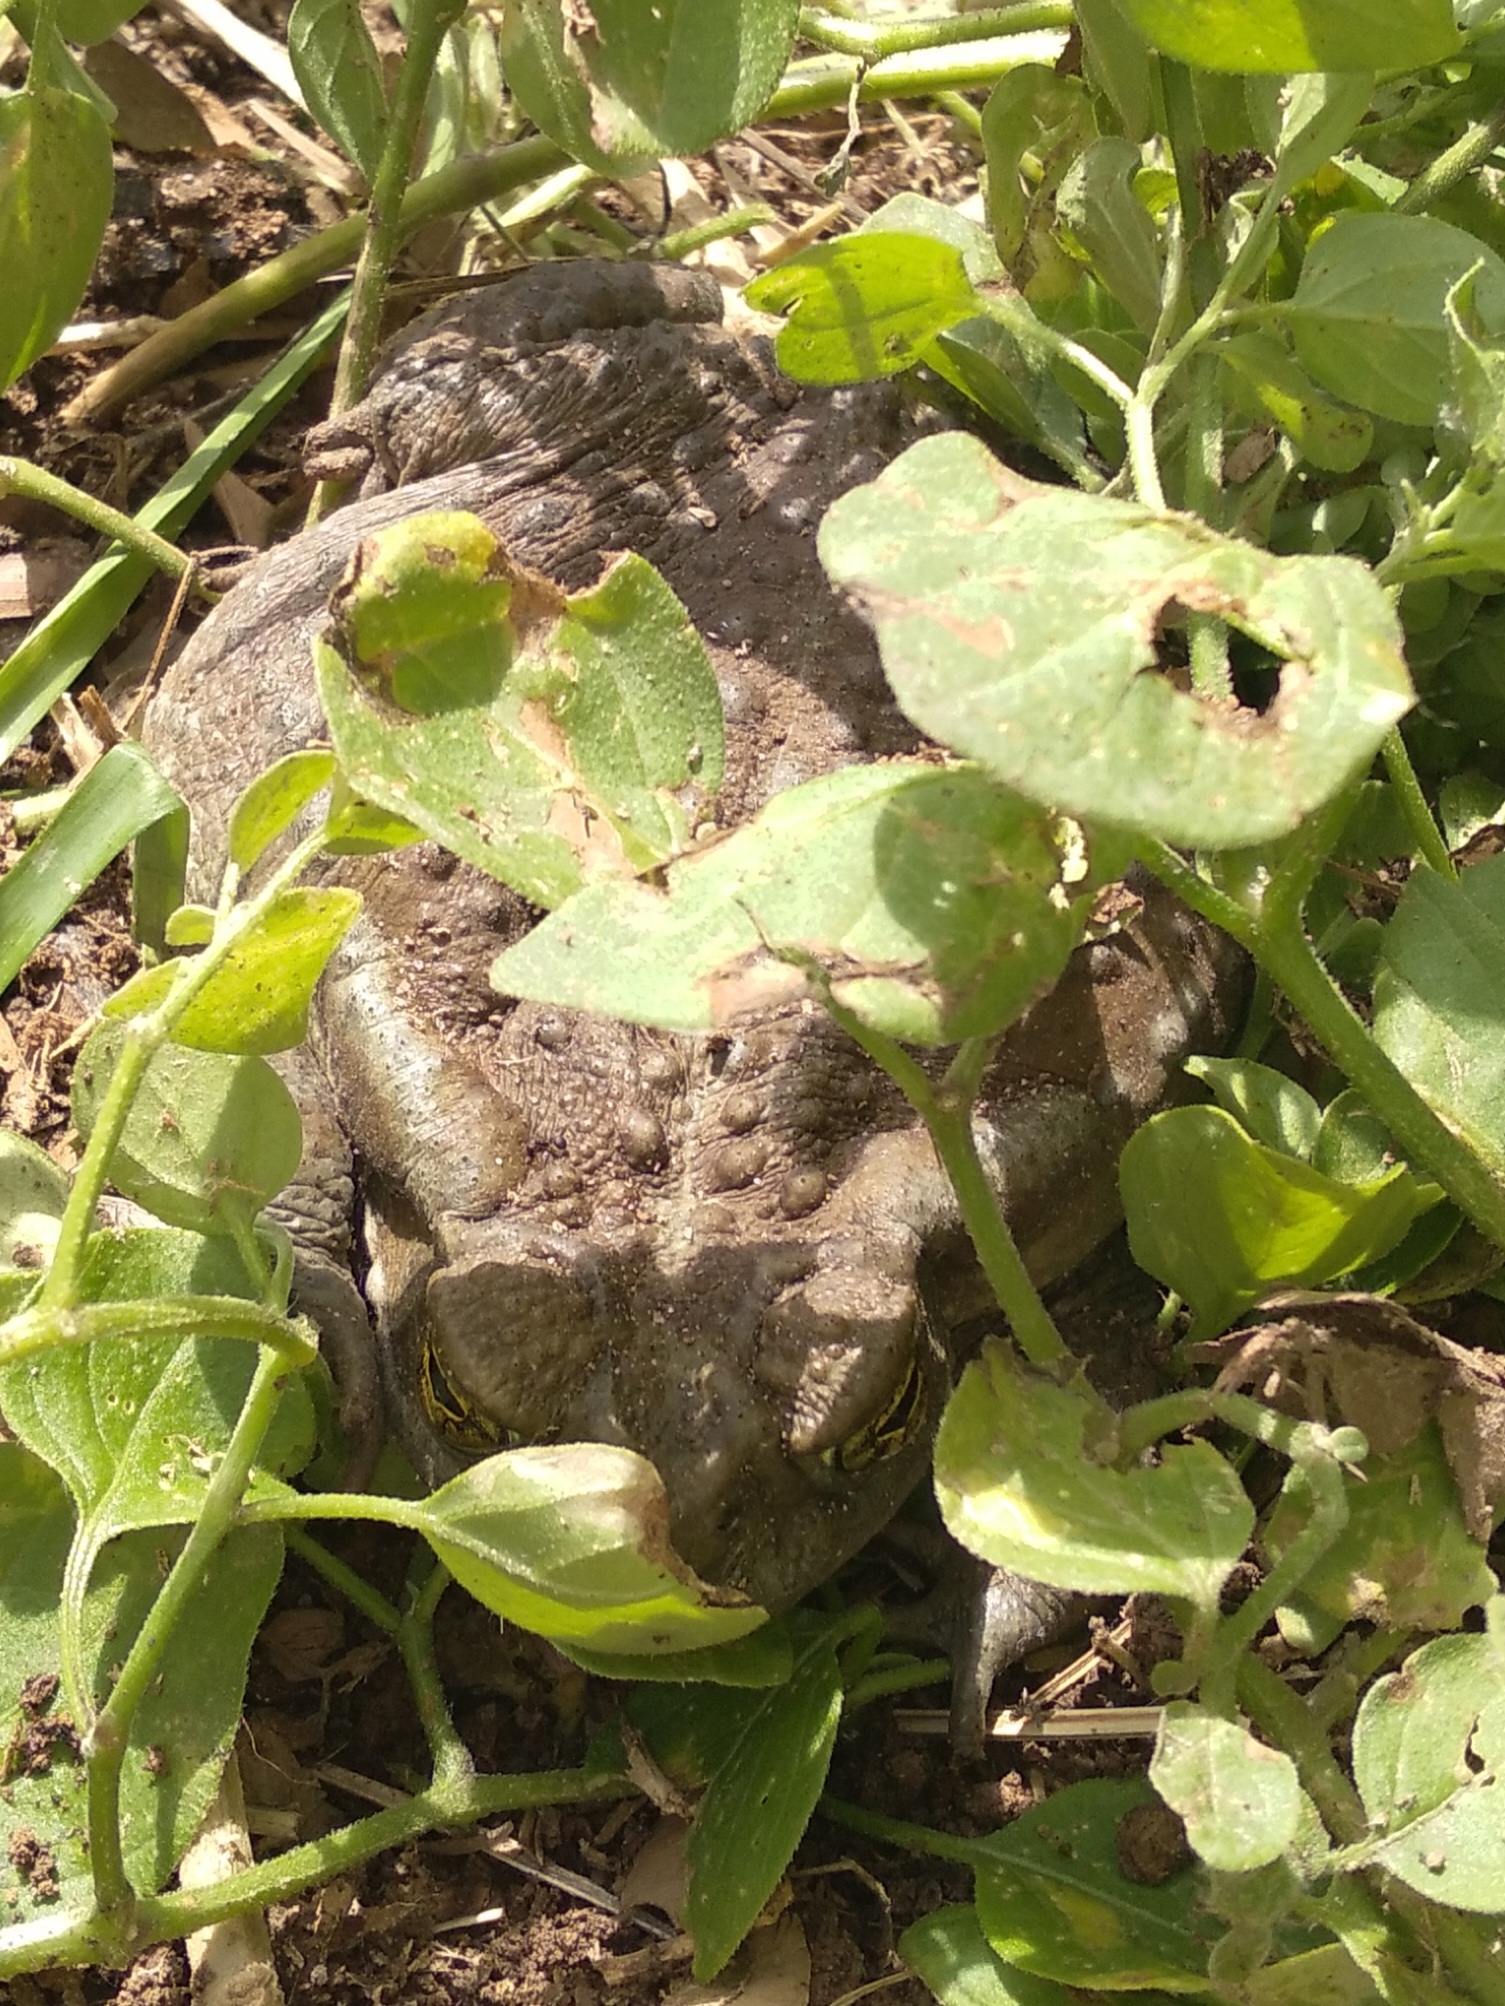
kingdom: Animalia
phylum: Chordata
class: Amphibia
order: Anura
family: Bufonidae
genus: Rhinella
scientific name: Rhinella arenarum
